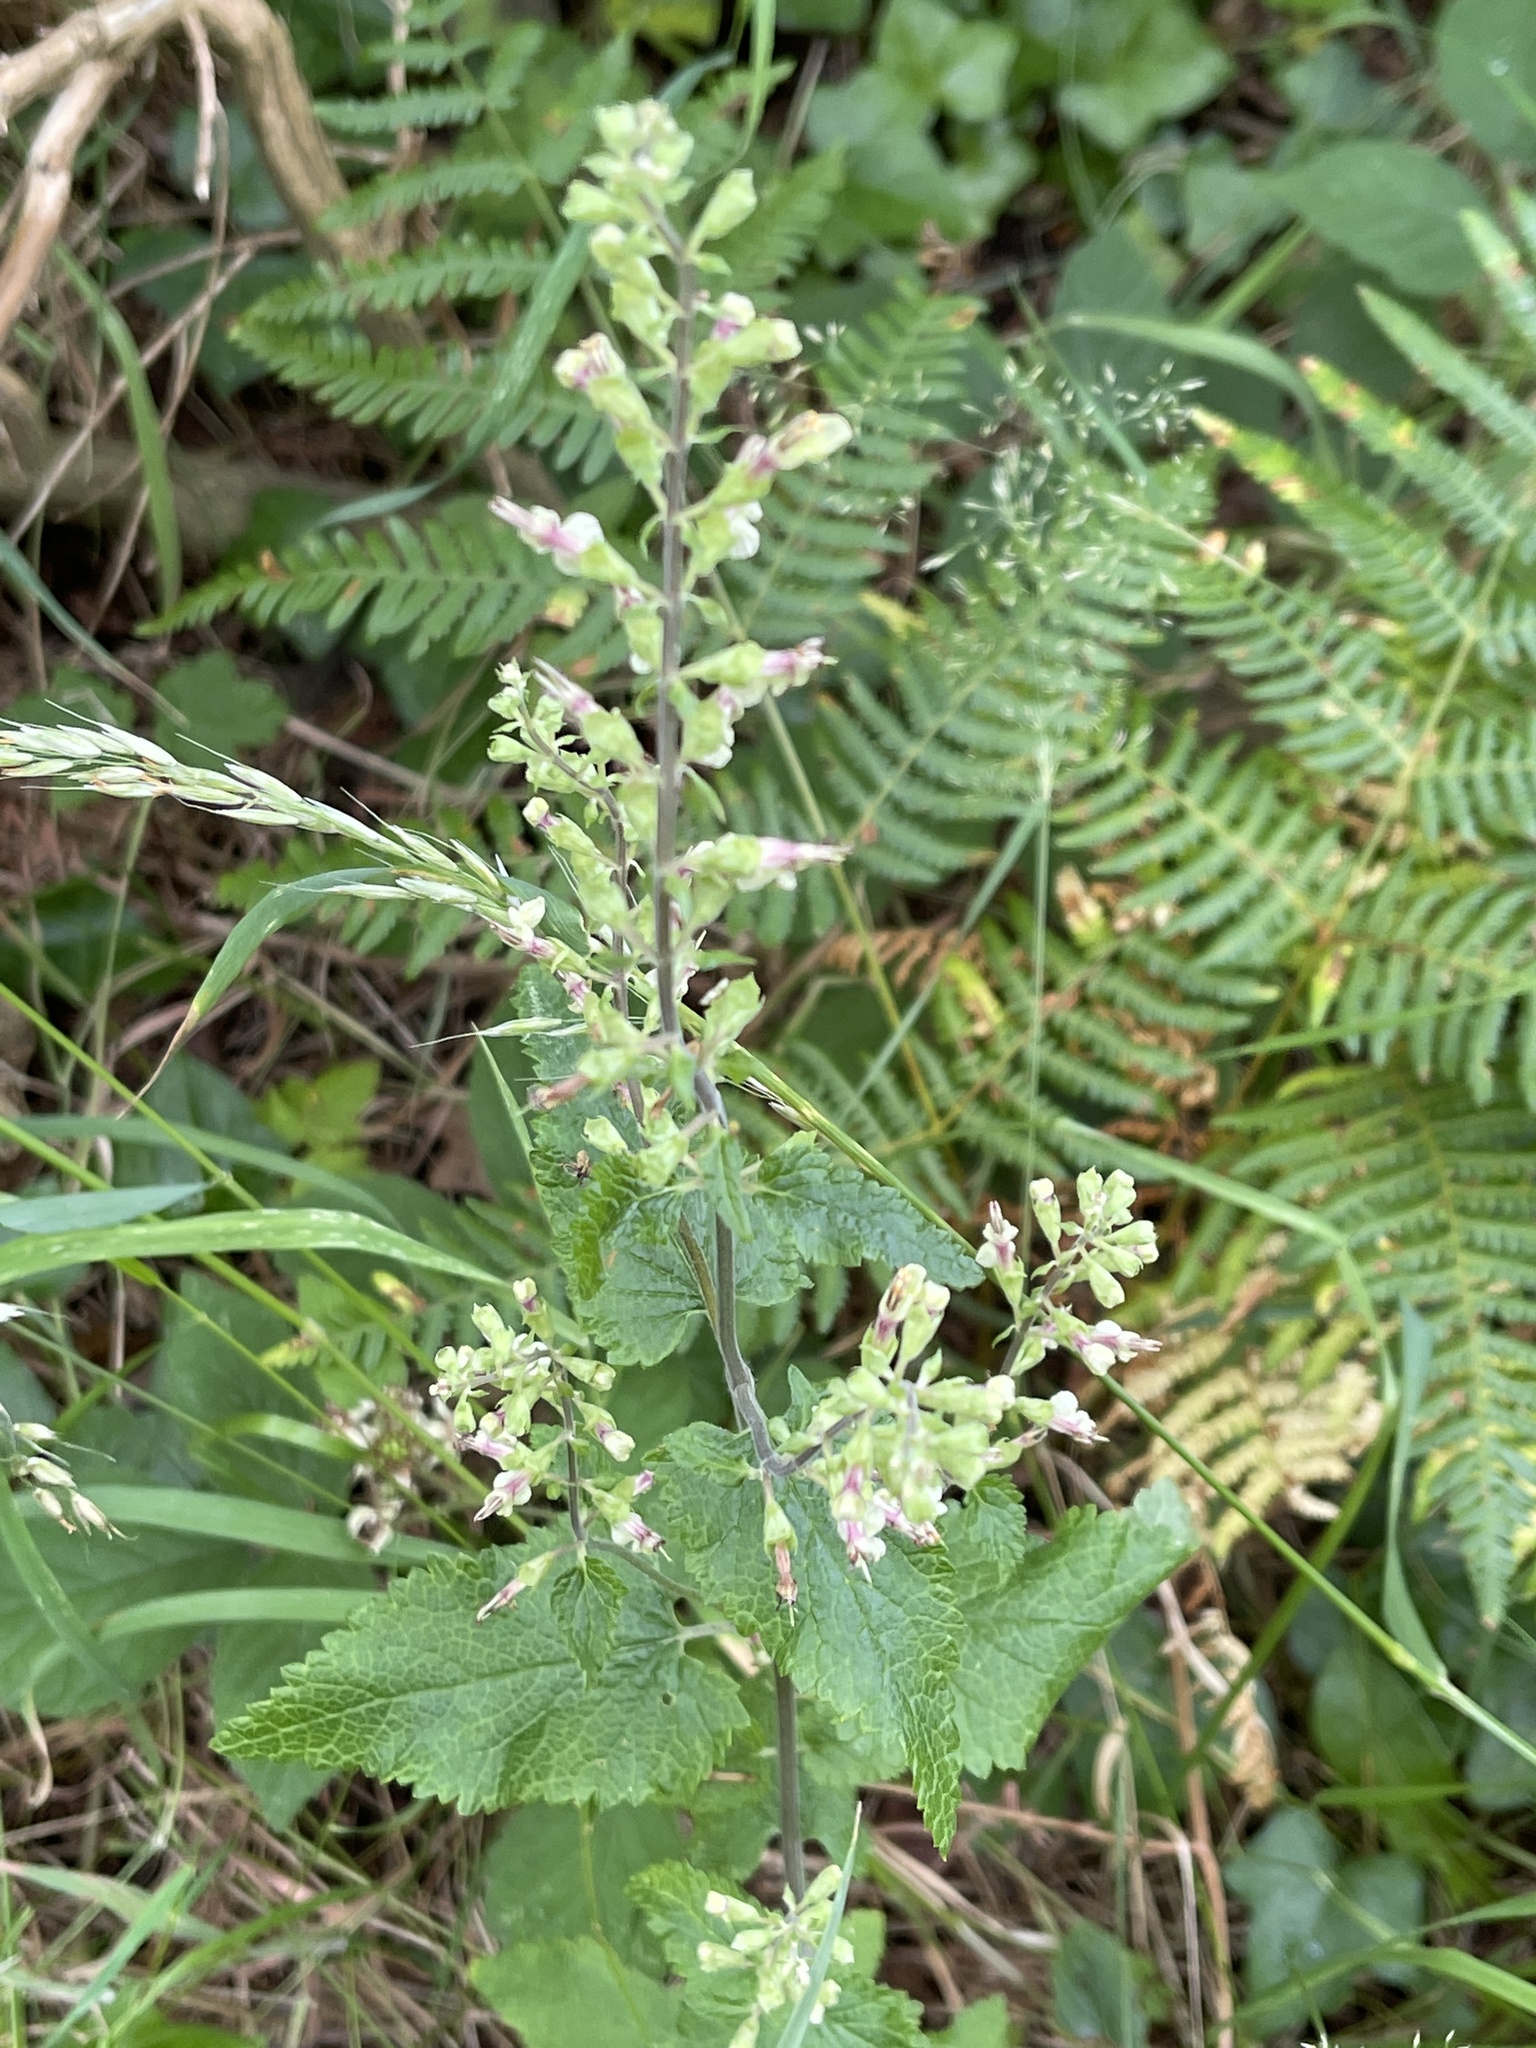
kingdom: Plantae
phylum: Tracheophyta
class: Magnoliopsida
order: Lamiales
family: Lamiaceae
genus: Teucrium
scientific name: Teucrium scorodonia
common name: Woodland germander
